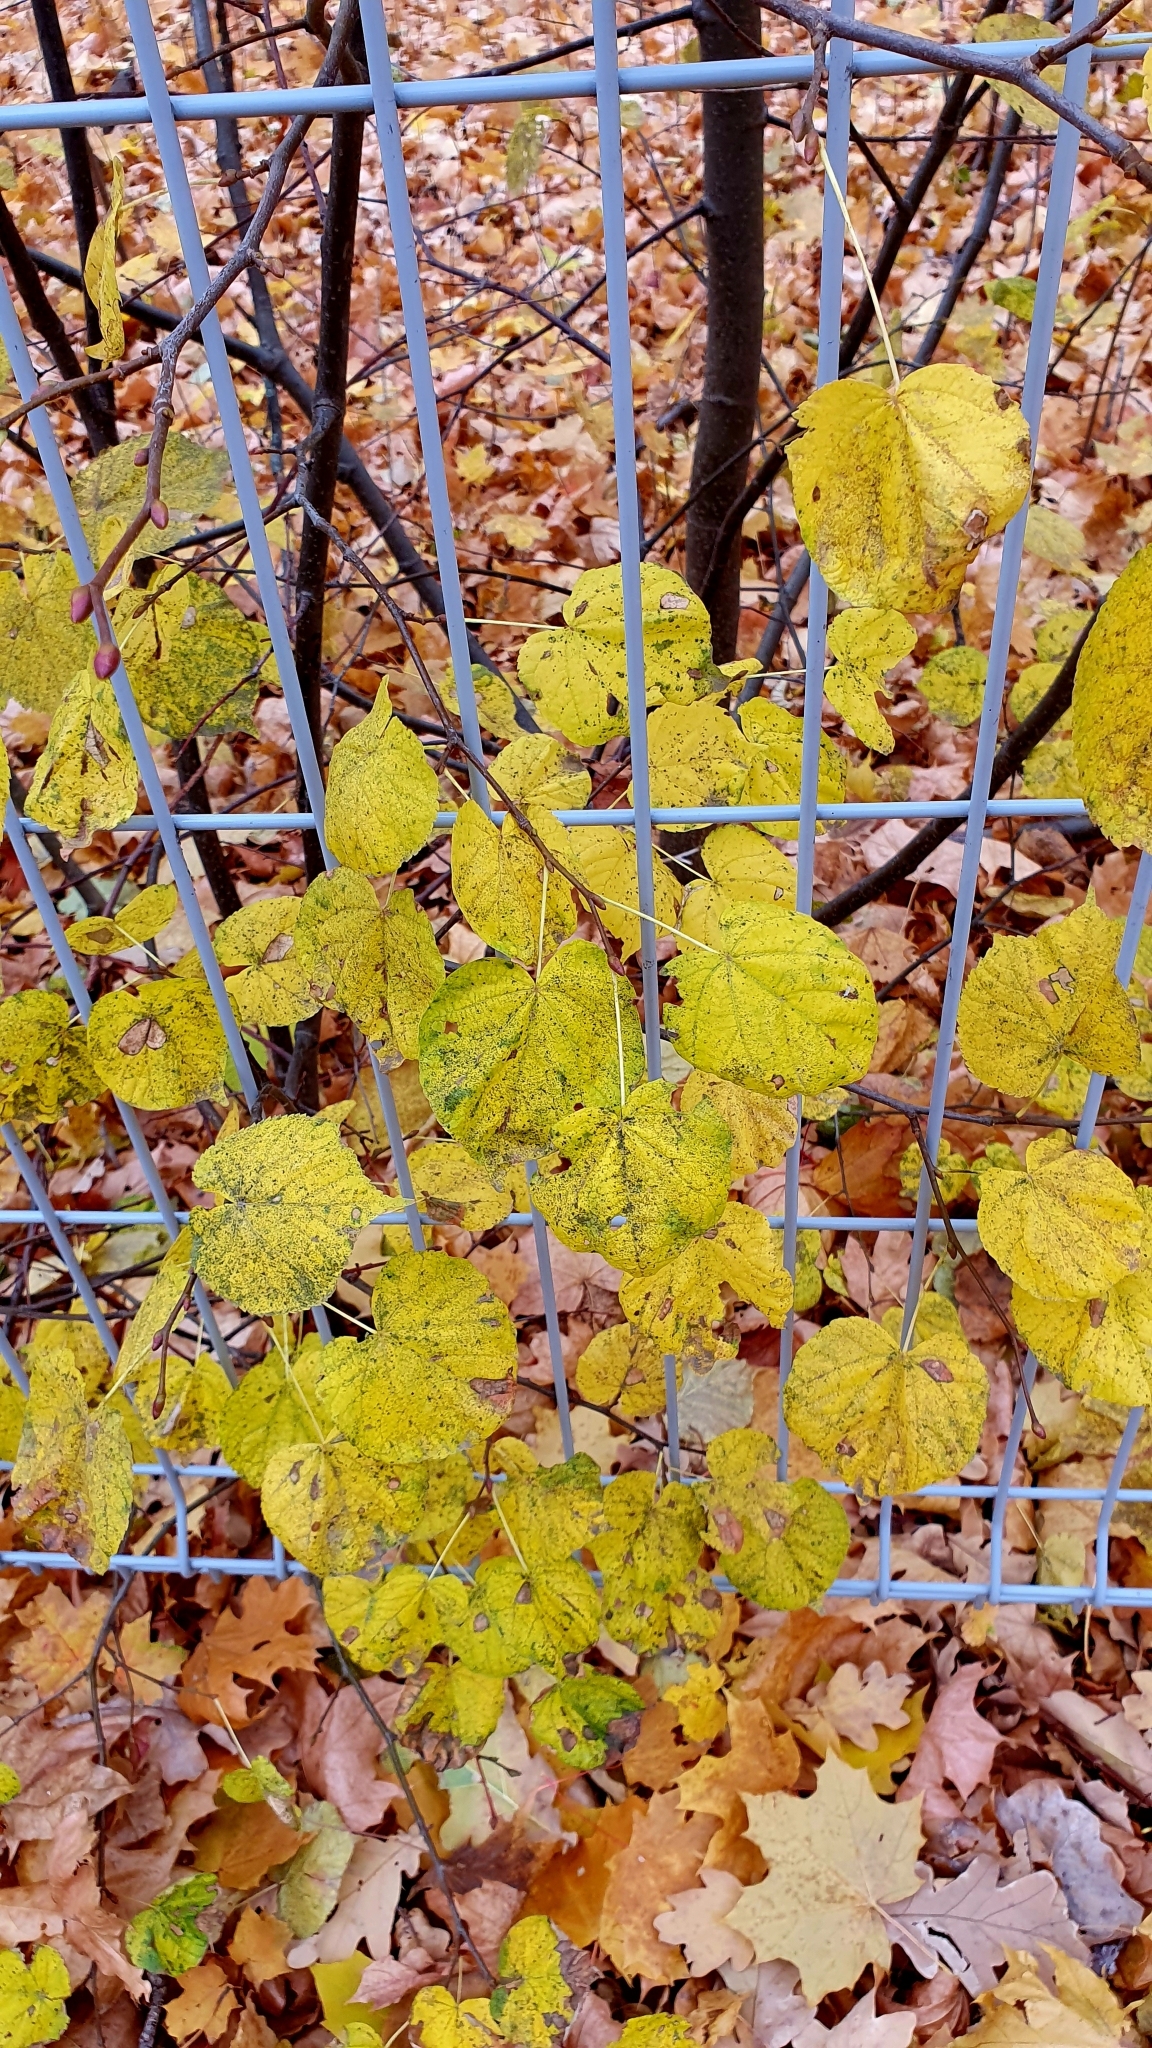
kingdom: Plantae
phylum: Tracheophyta
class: Magnoliopsida
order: Malvales
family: Malvaceae
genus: Tilia
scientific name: Tilia cordata
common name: Small-leaved lime
